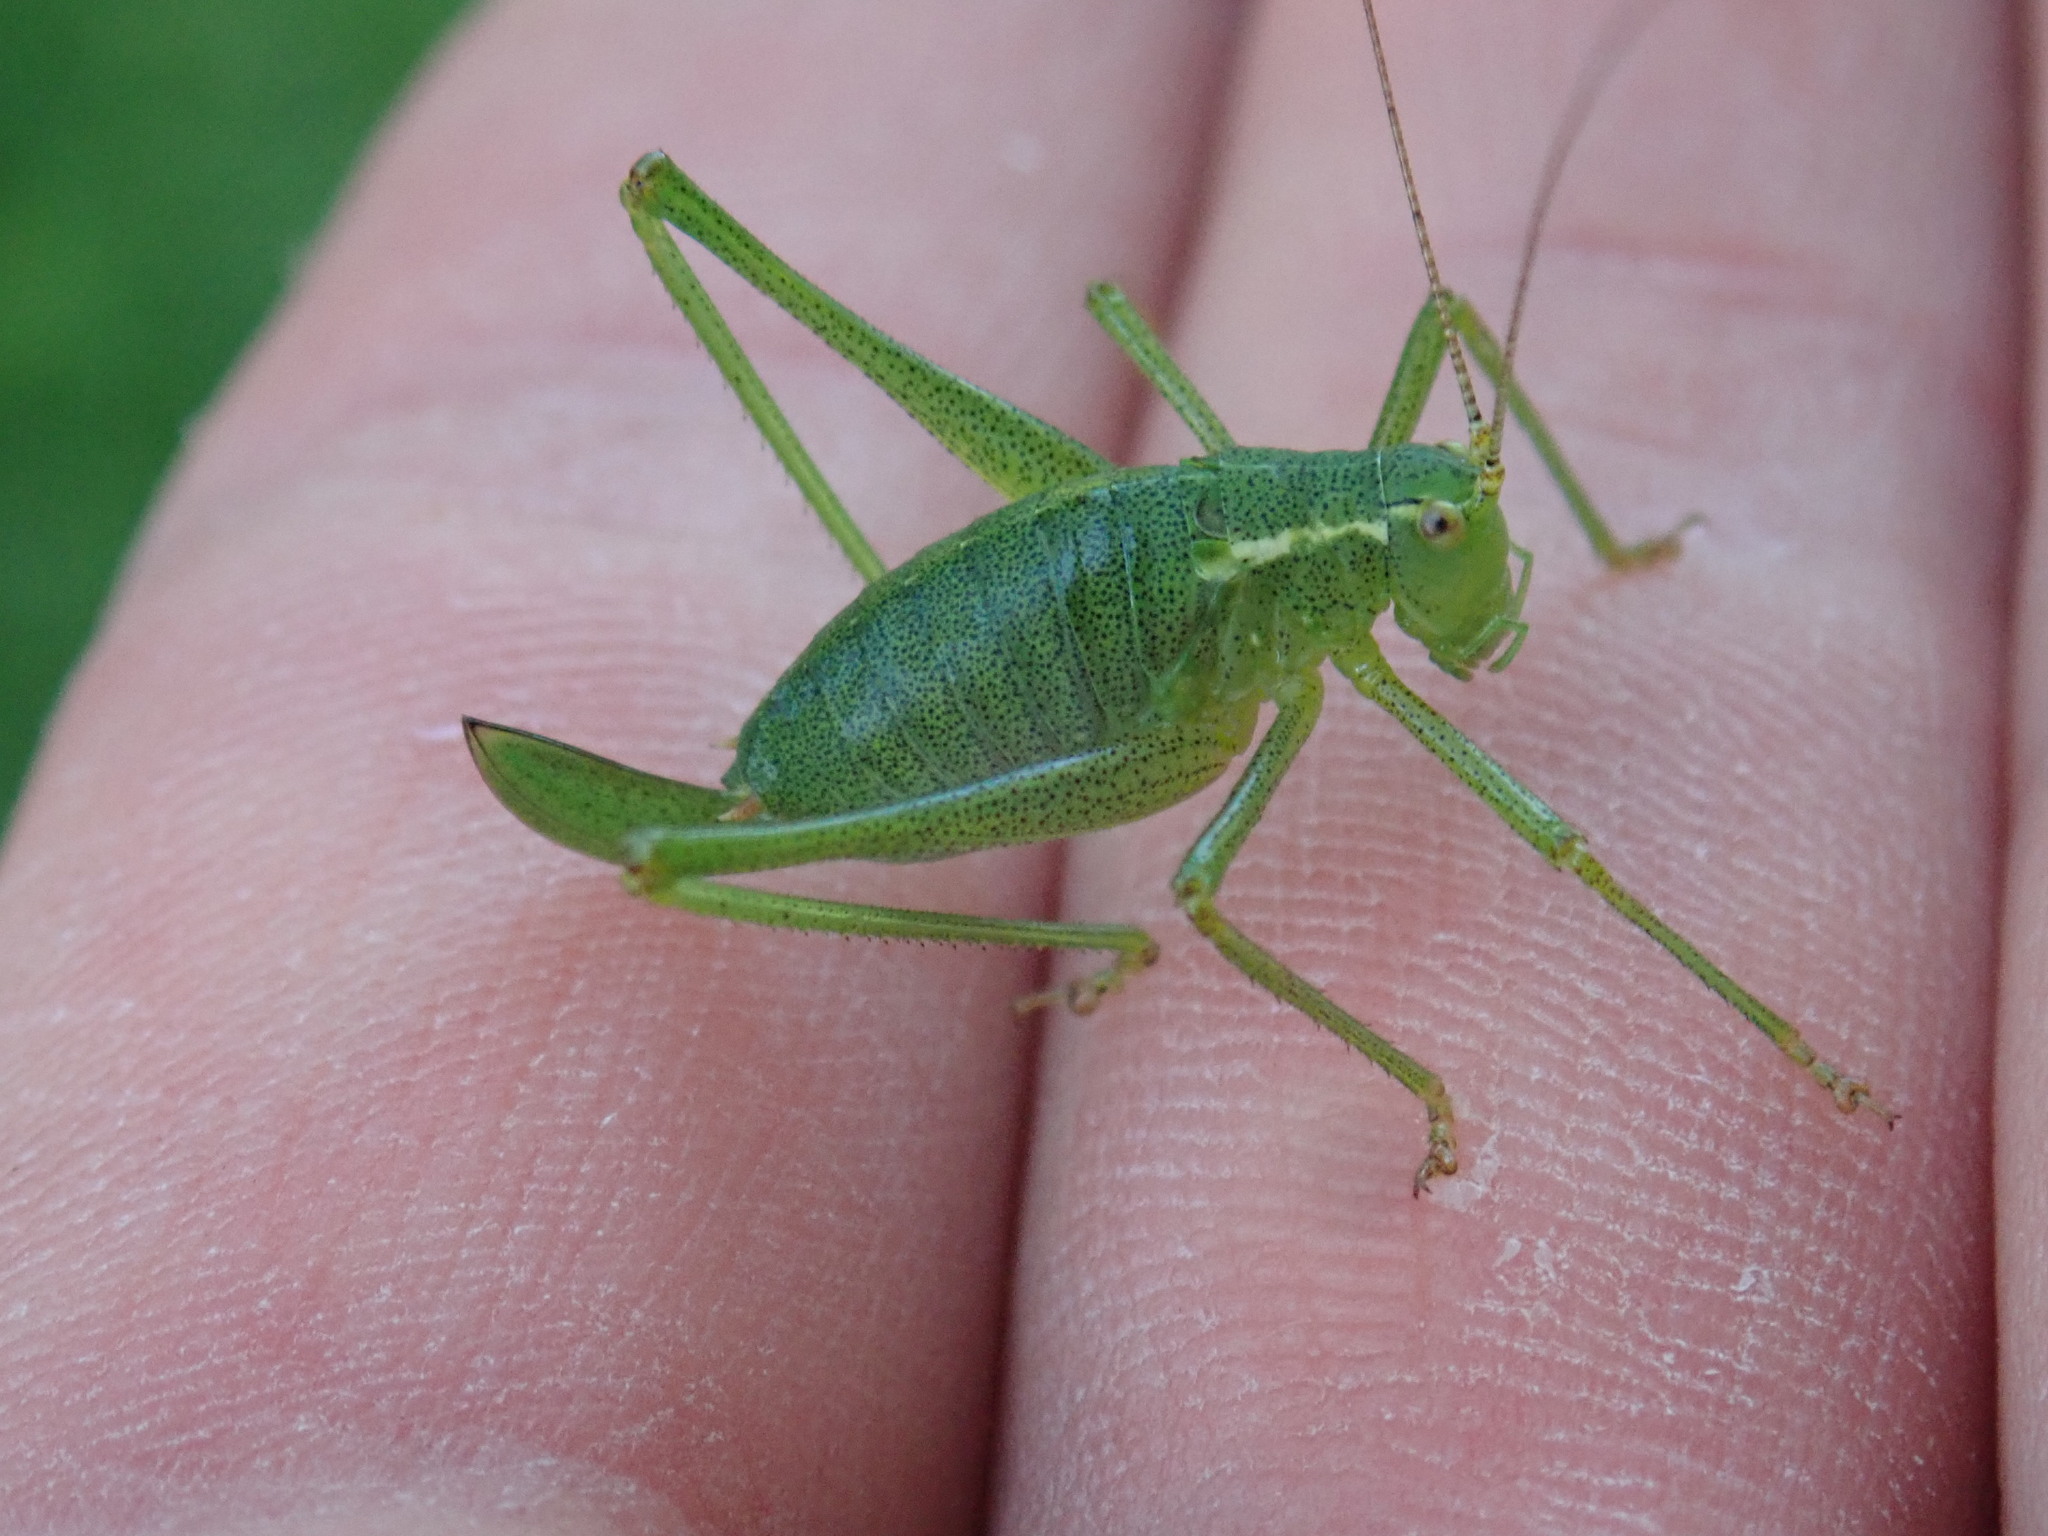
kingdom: Animalia
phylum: Arthropoda
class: Insecta
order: Orthoptera
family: Tettigoniidae
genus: Leptophyes
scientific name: Leptophyes punctatissima
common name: Speckled bush-cricket
